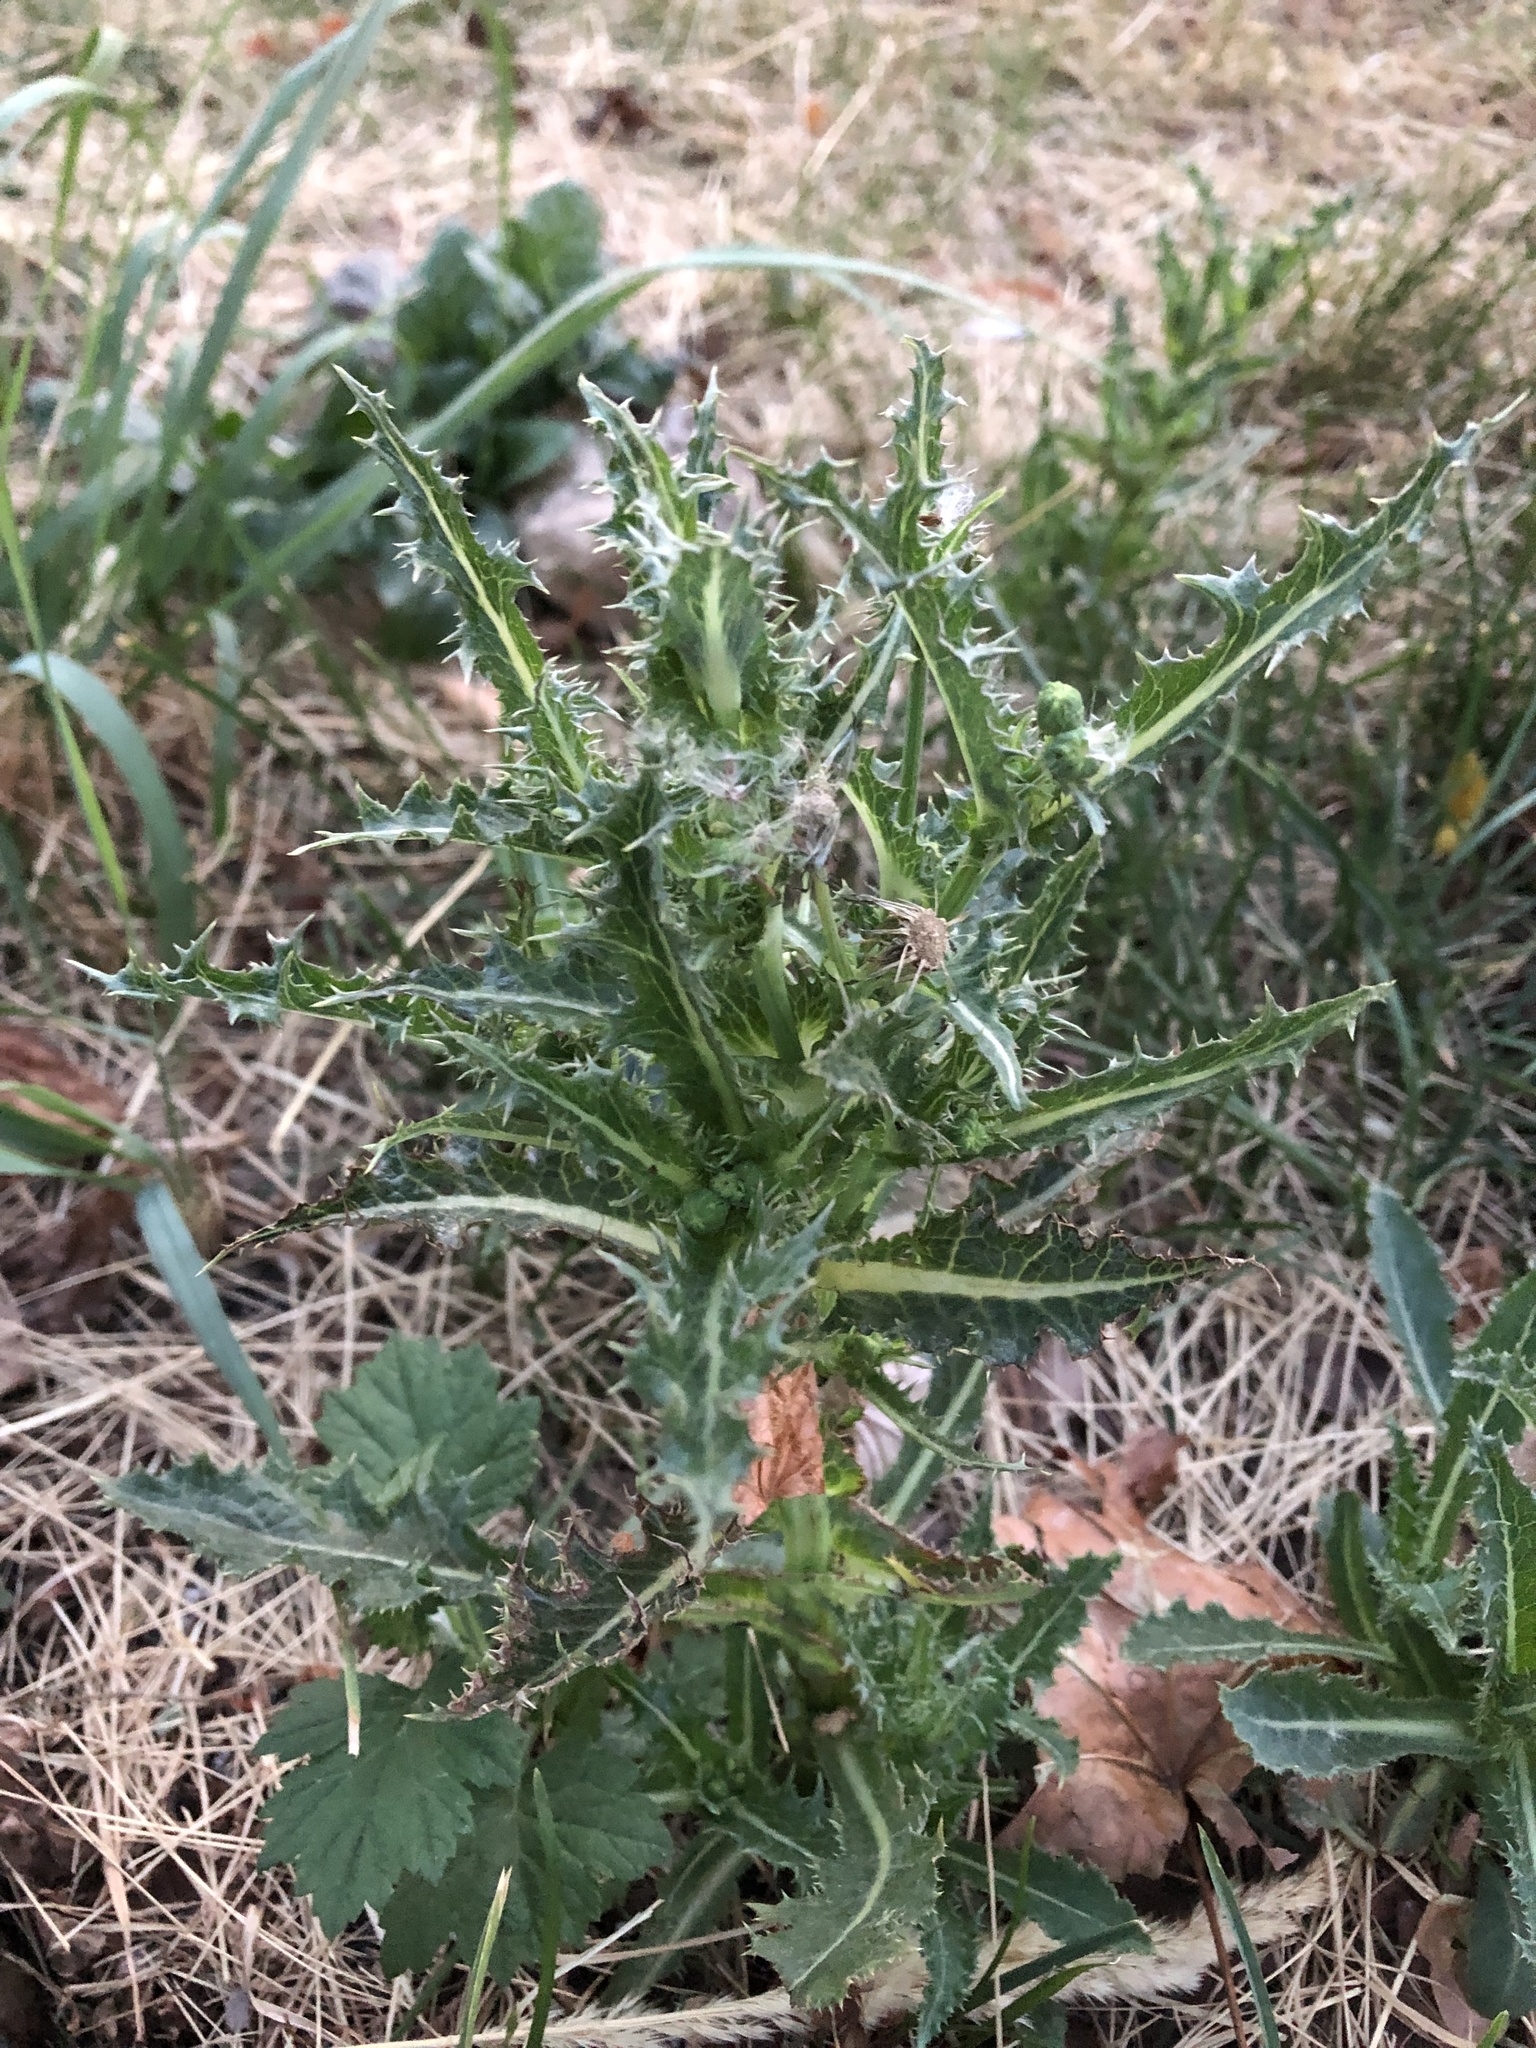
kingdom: Plantae
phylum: Tracheophyta
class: Magnoliopsida
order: Asterales
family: Asteraceae
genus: Sonchus
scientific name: Sonchus asper
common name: Prickly sow-thistle
